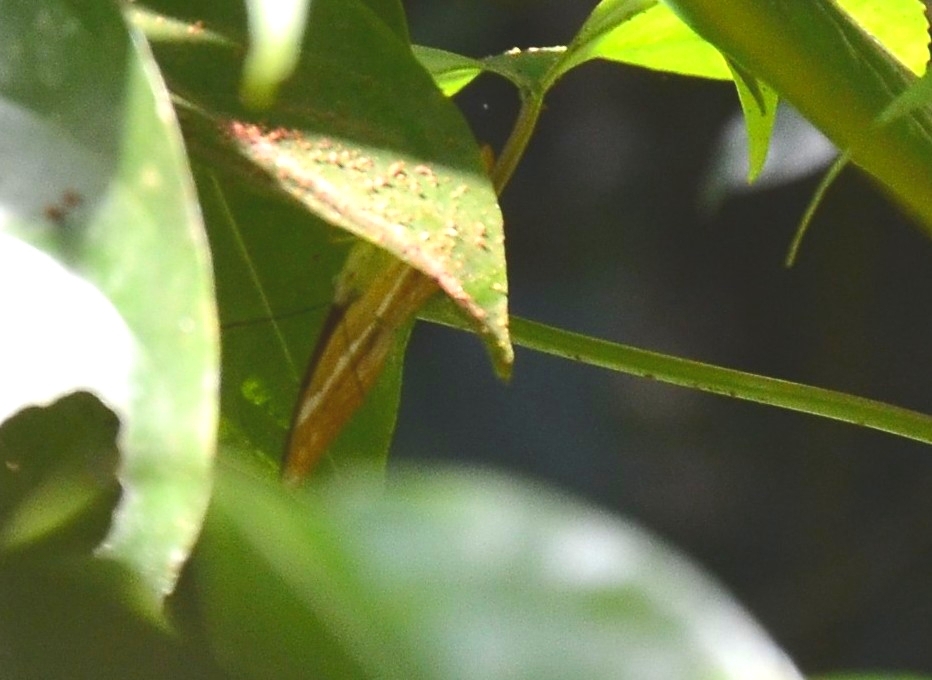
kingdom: Animalia
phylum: Arthropoda
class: Insecta
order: Lepidoptera
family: Nymphalidae
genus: Cirrochroa
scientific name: Cirrochroa thais
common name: Tamil yeoman
